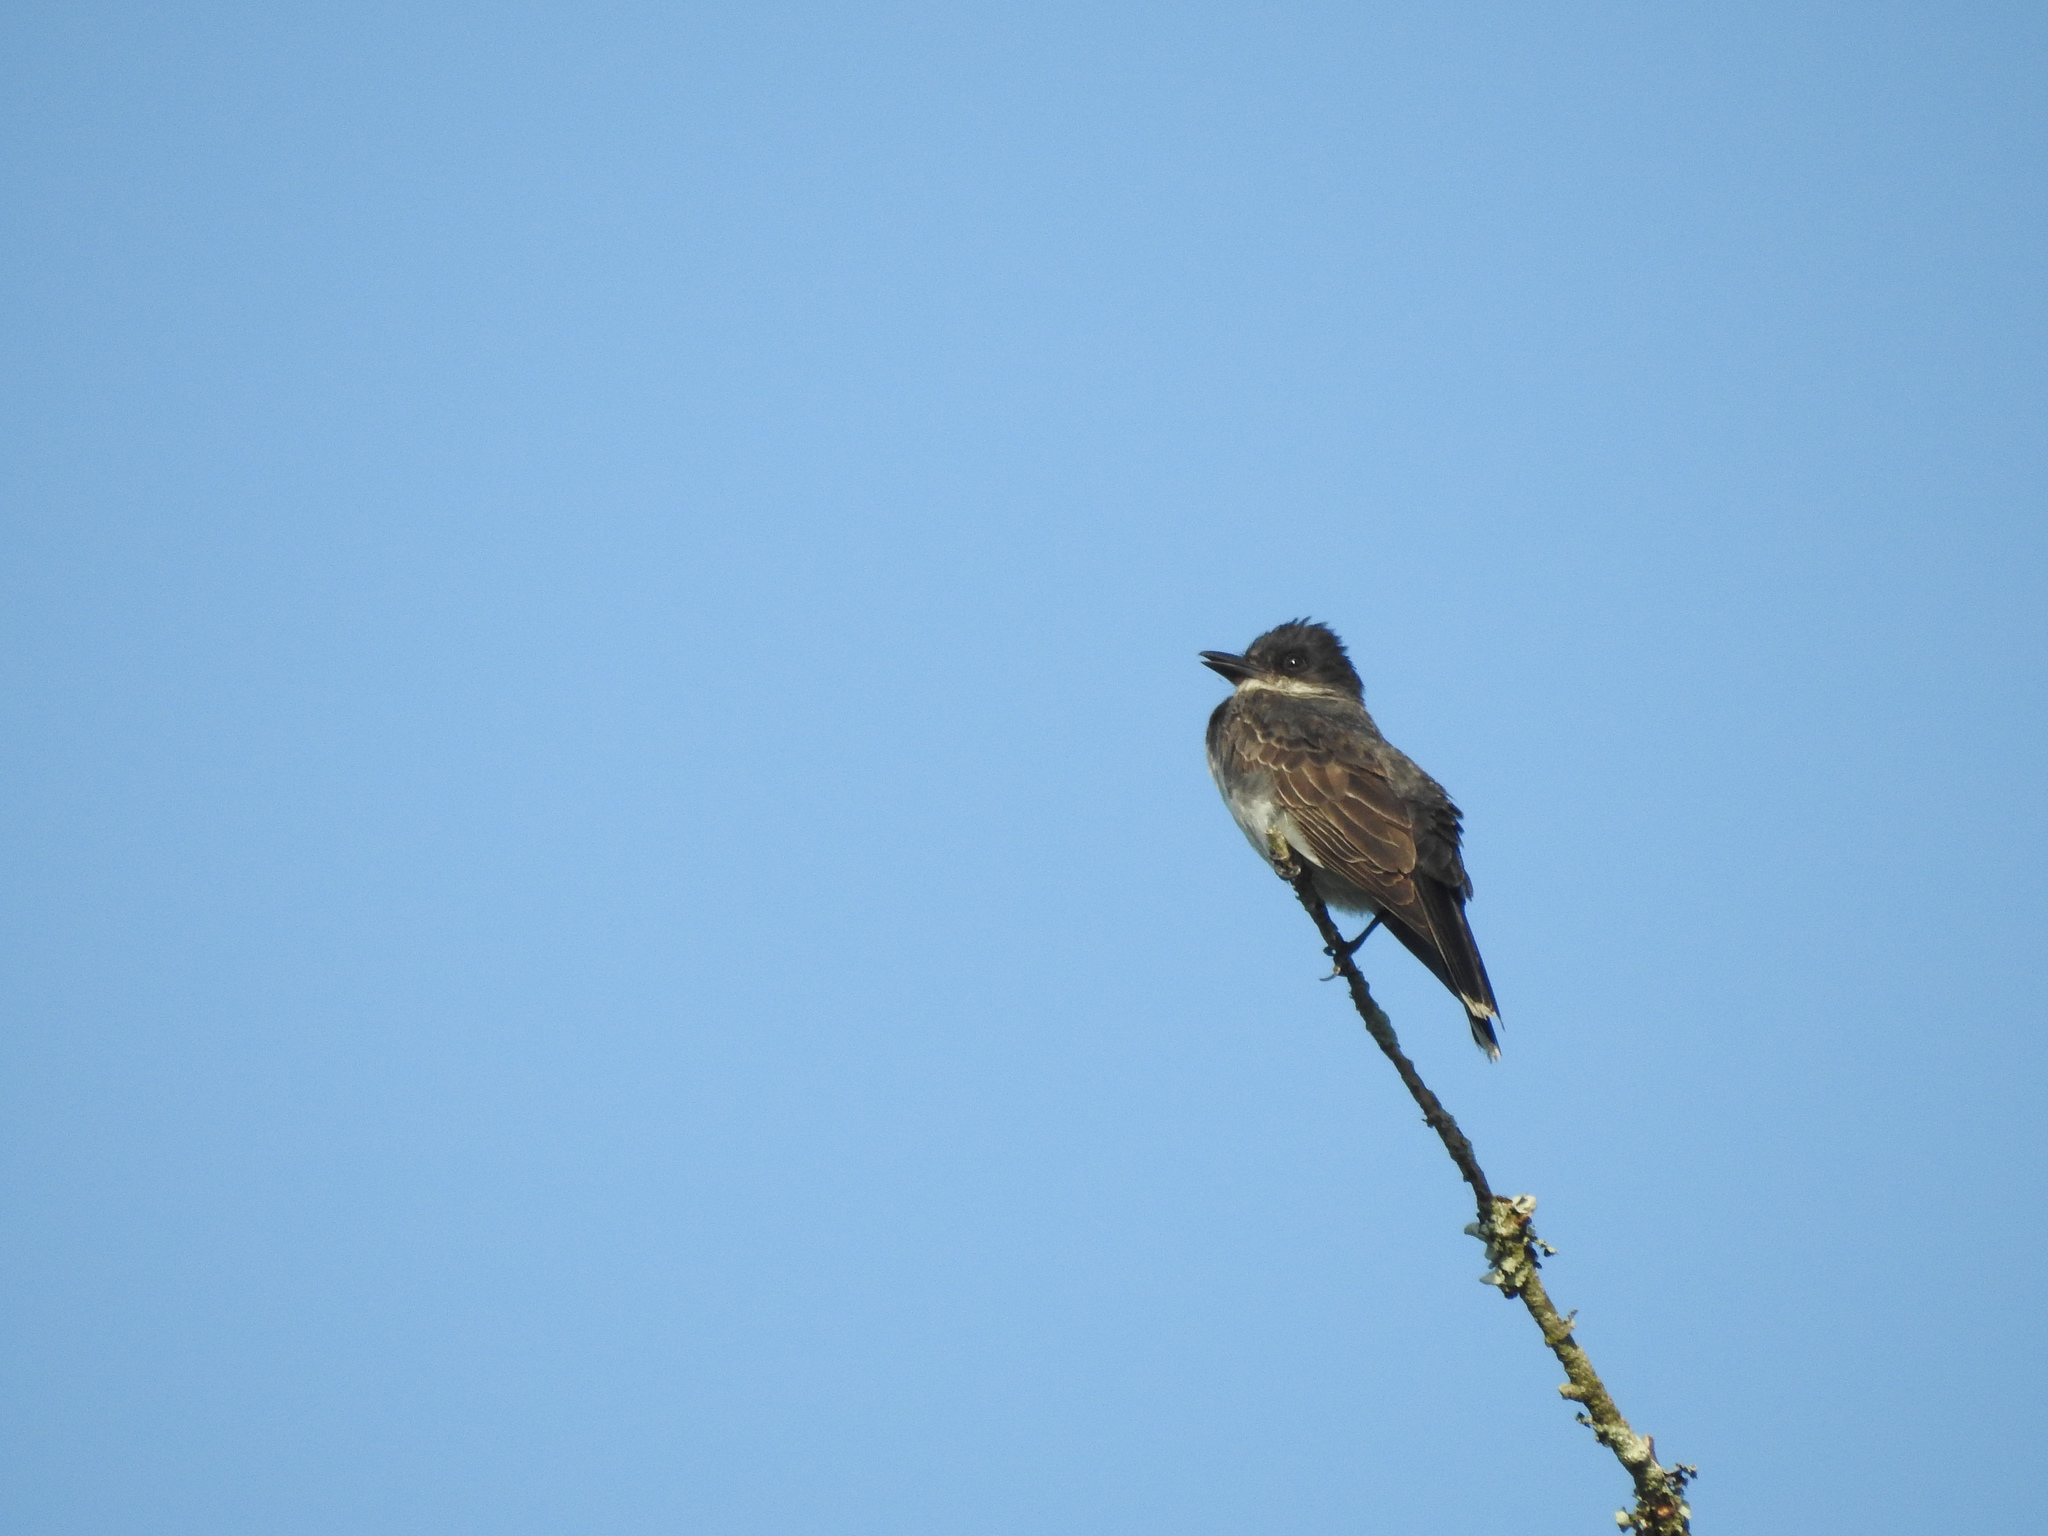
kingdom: Animalia
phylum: Chordata
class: Aves
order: Passeriformes
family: Tyrannidae
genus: Tyrannus
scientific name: Tyrannus tyrannus
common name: Eastern kingbird
